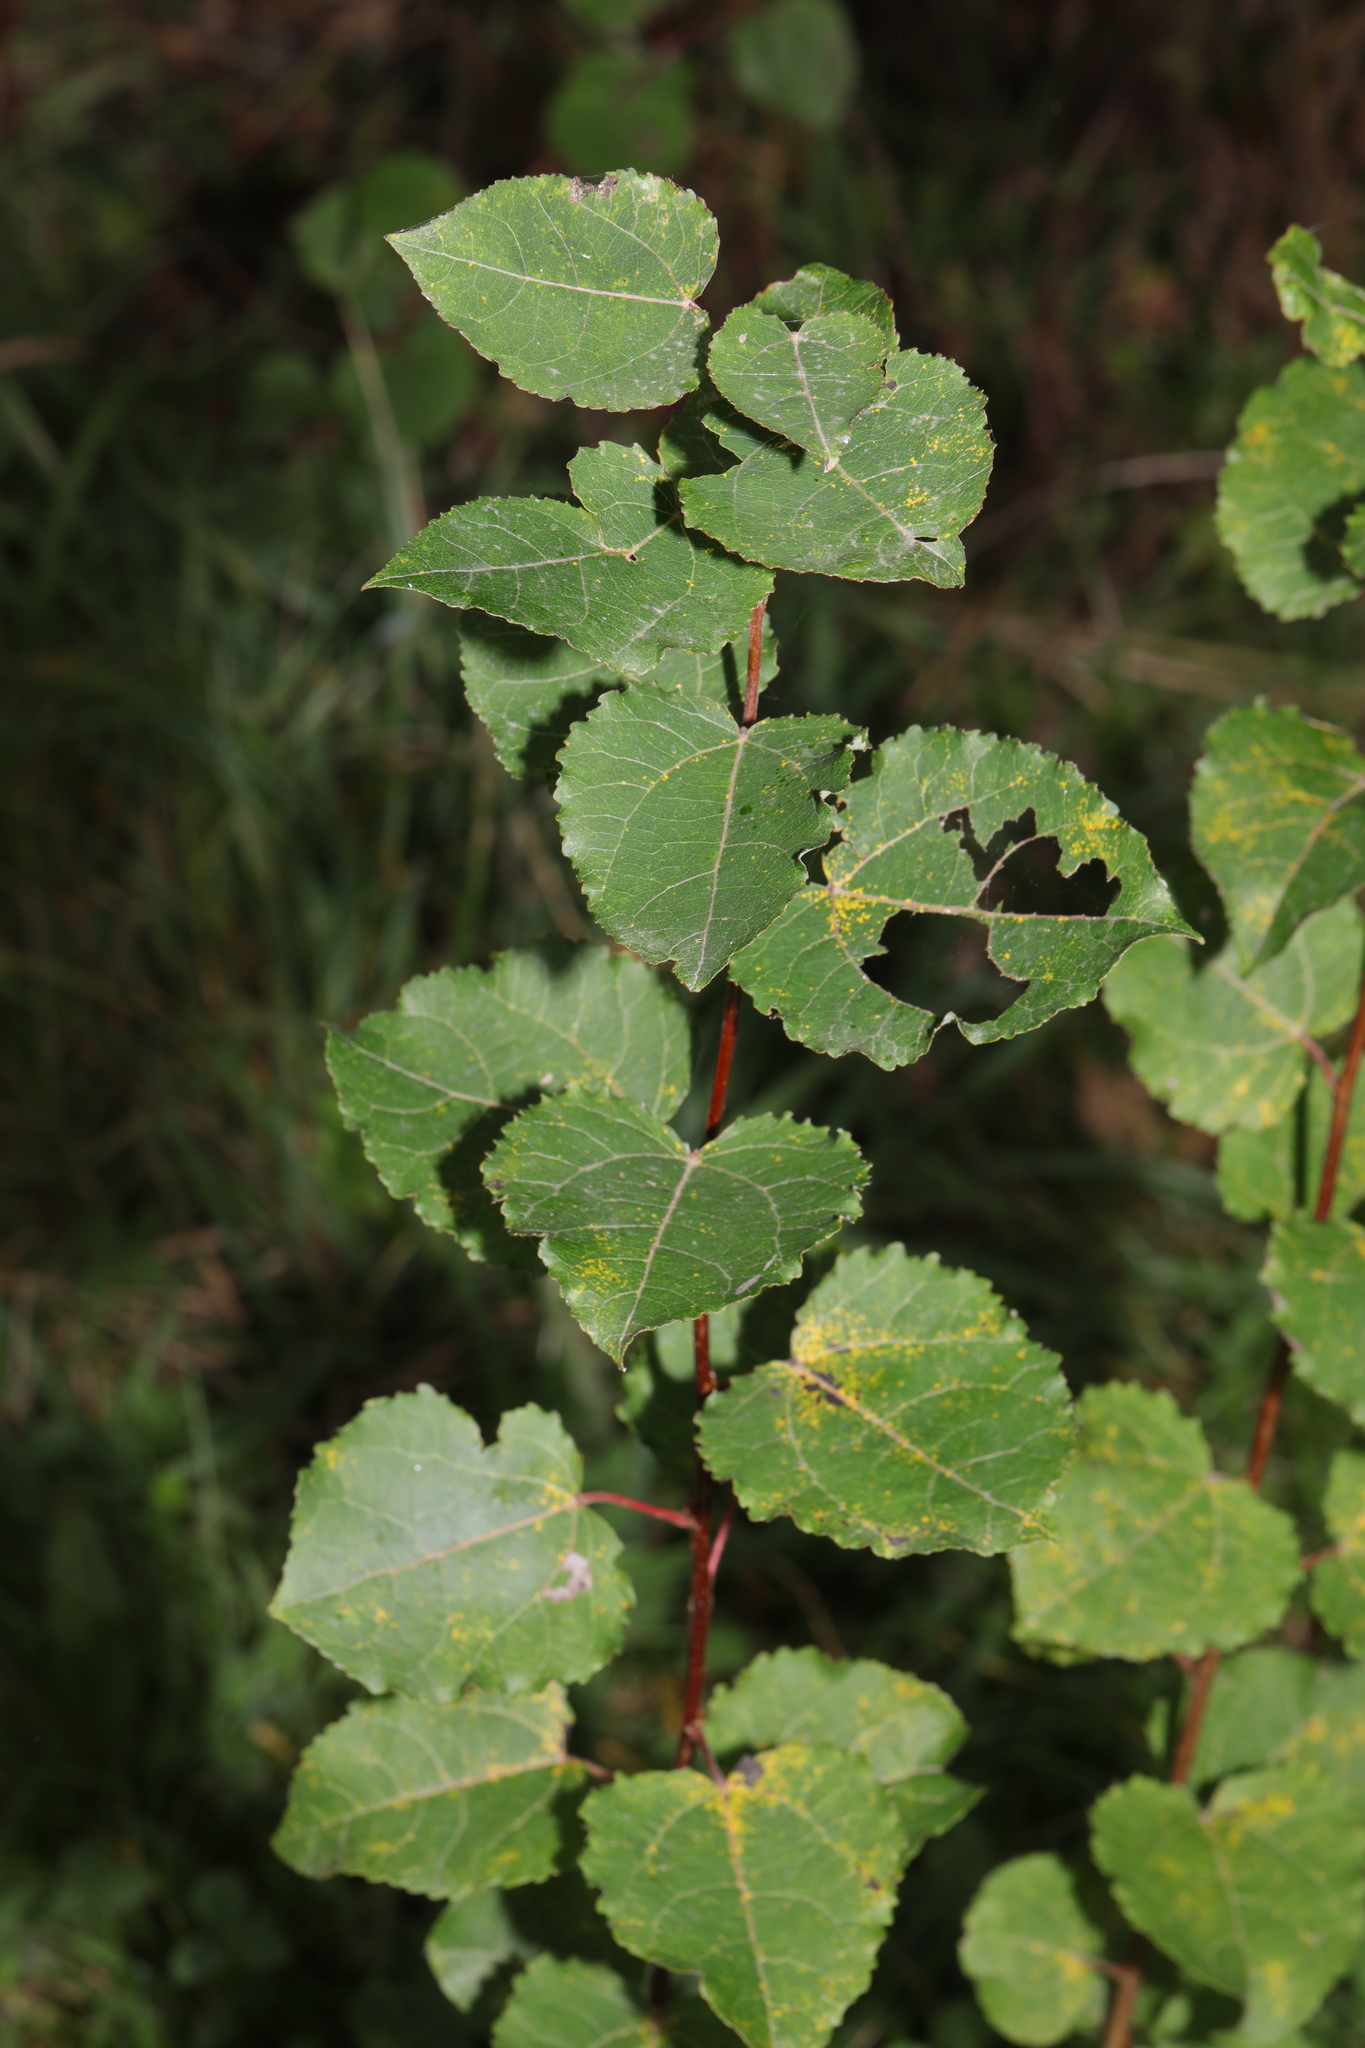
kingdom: Plantae
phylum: Tracheophyta
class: Magnoliopsida
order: Malpighiales
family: Salicaceae
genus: Populus
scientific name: Populus tremula
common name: European aspen
